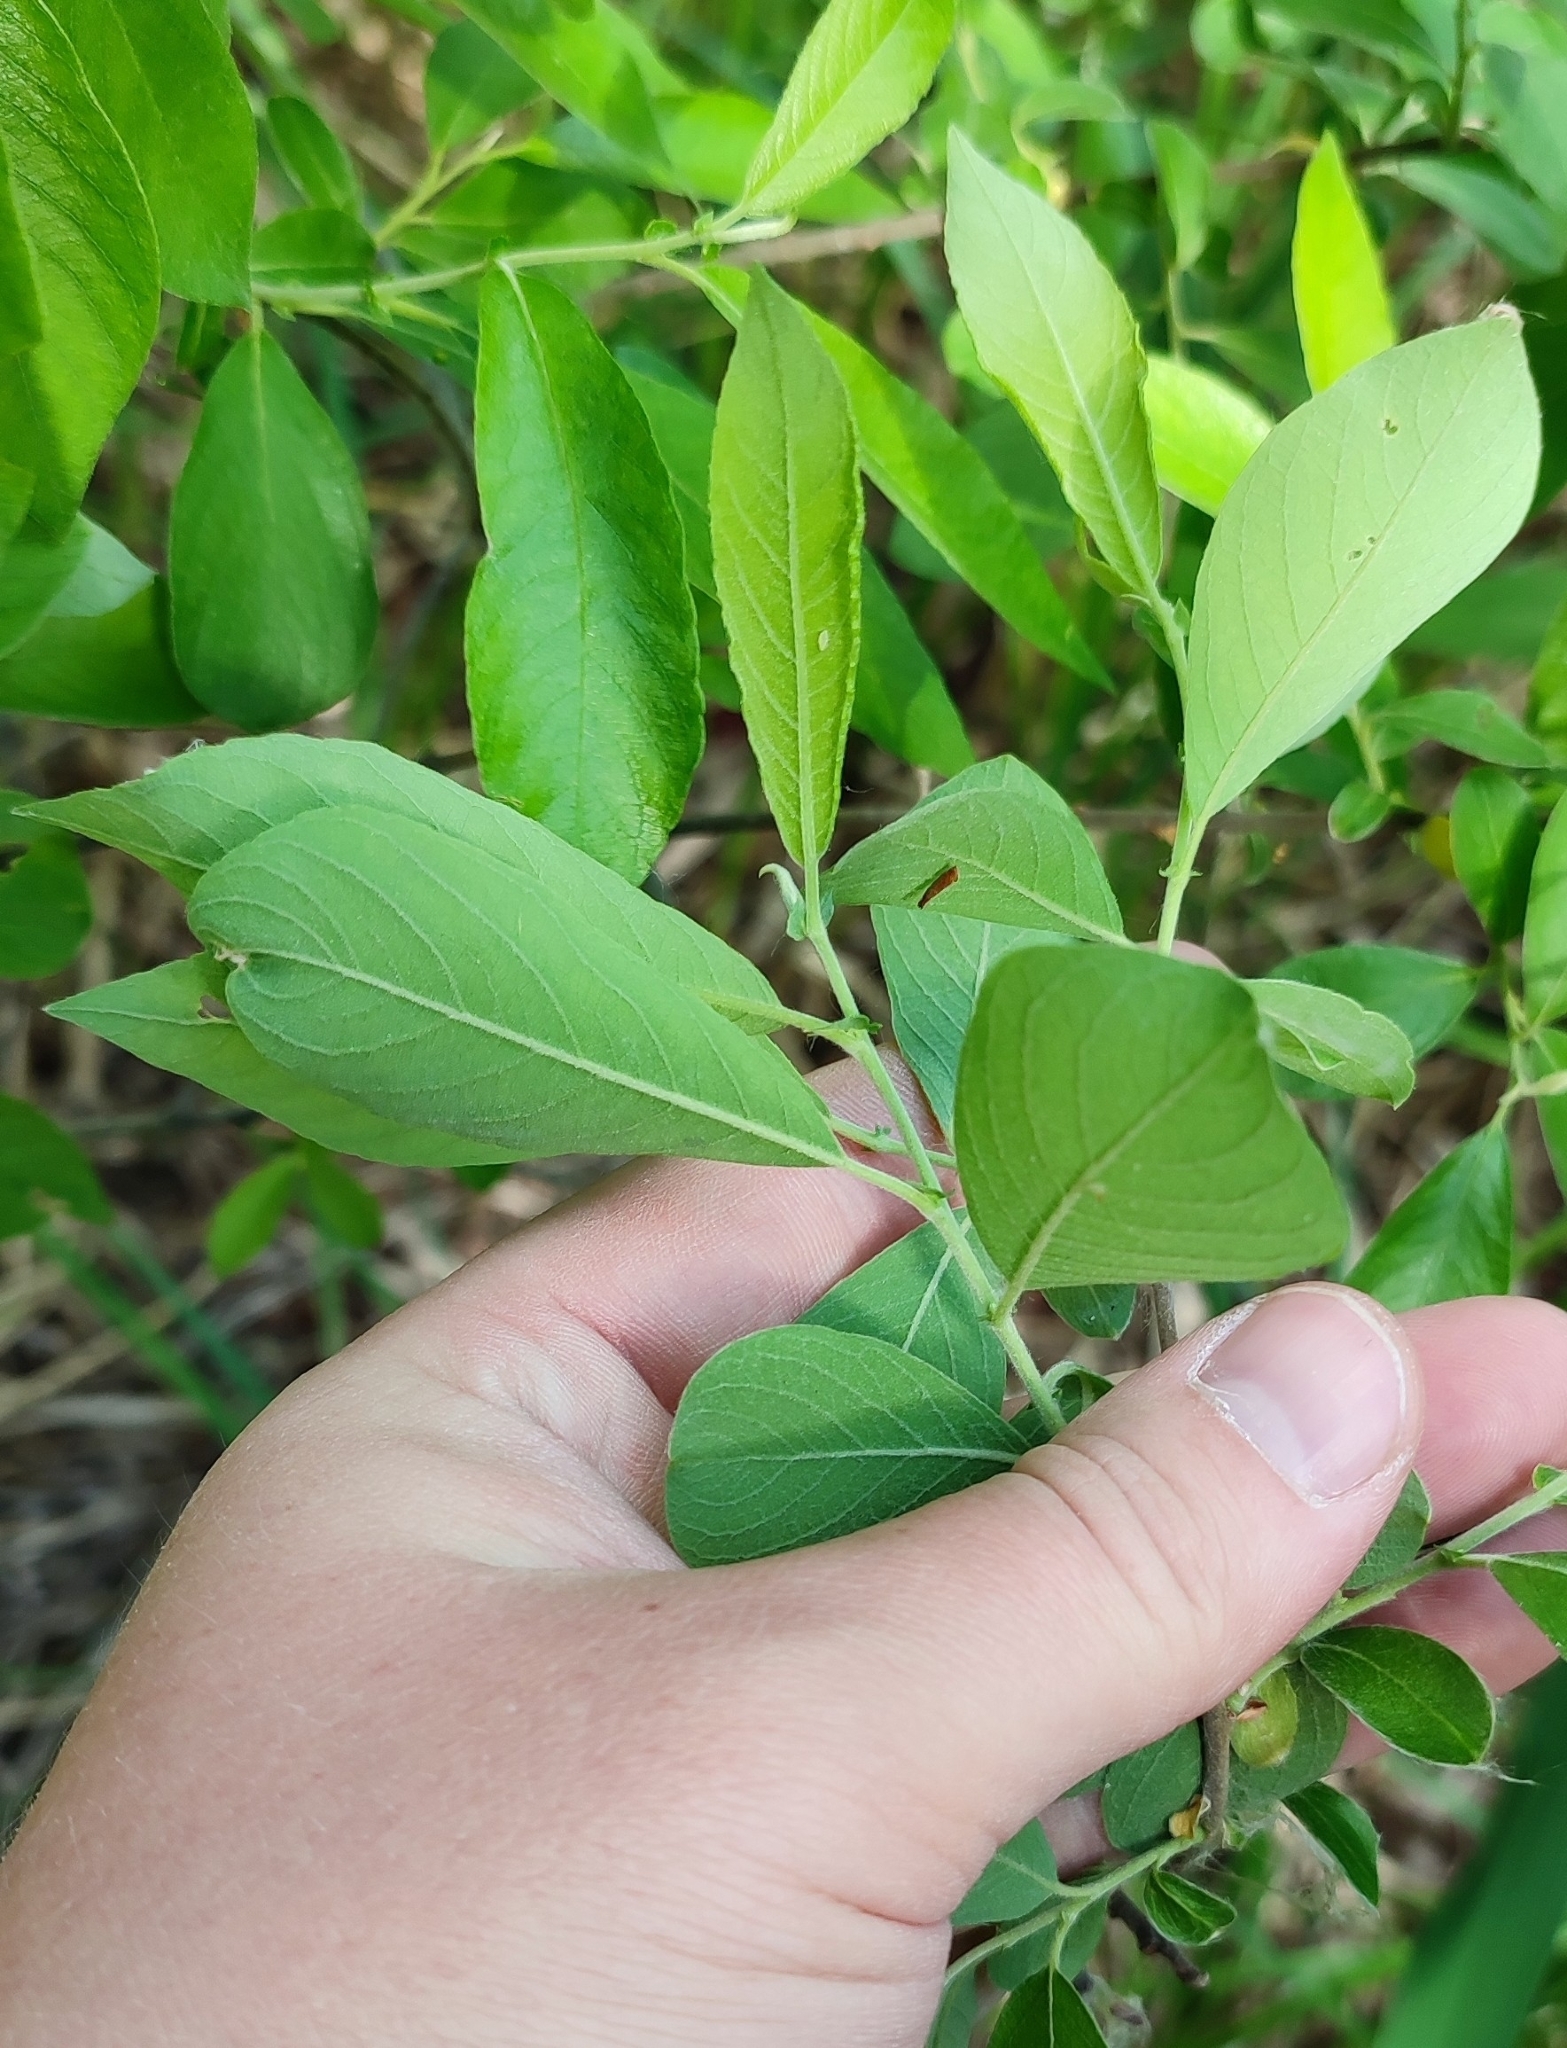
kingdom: Plantae
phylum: Tracheophyta
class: Magnoliopsida
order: Malpighiales
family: Salicaceae
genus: Salix
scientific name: Salix cinerea
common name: Common sallow
